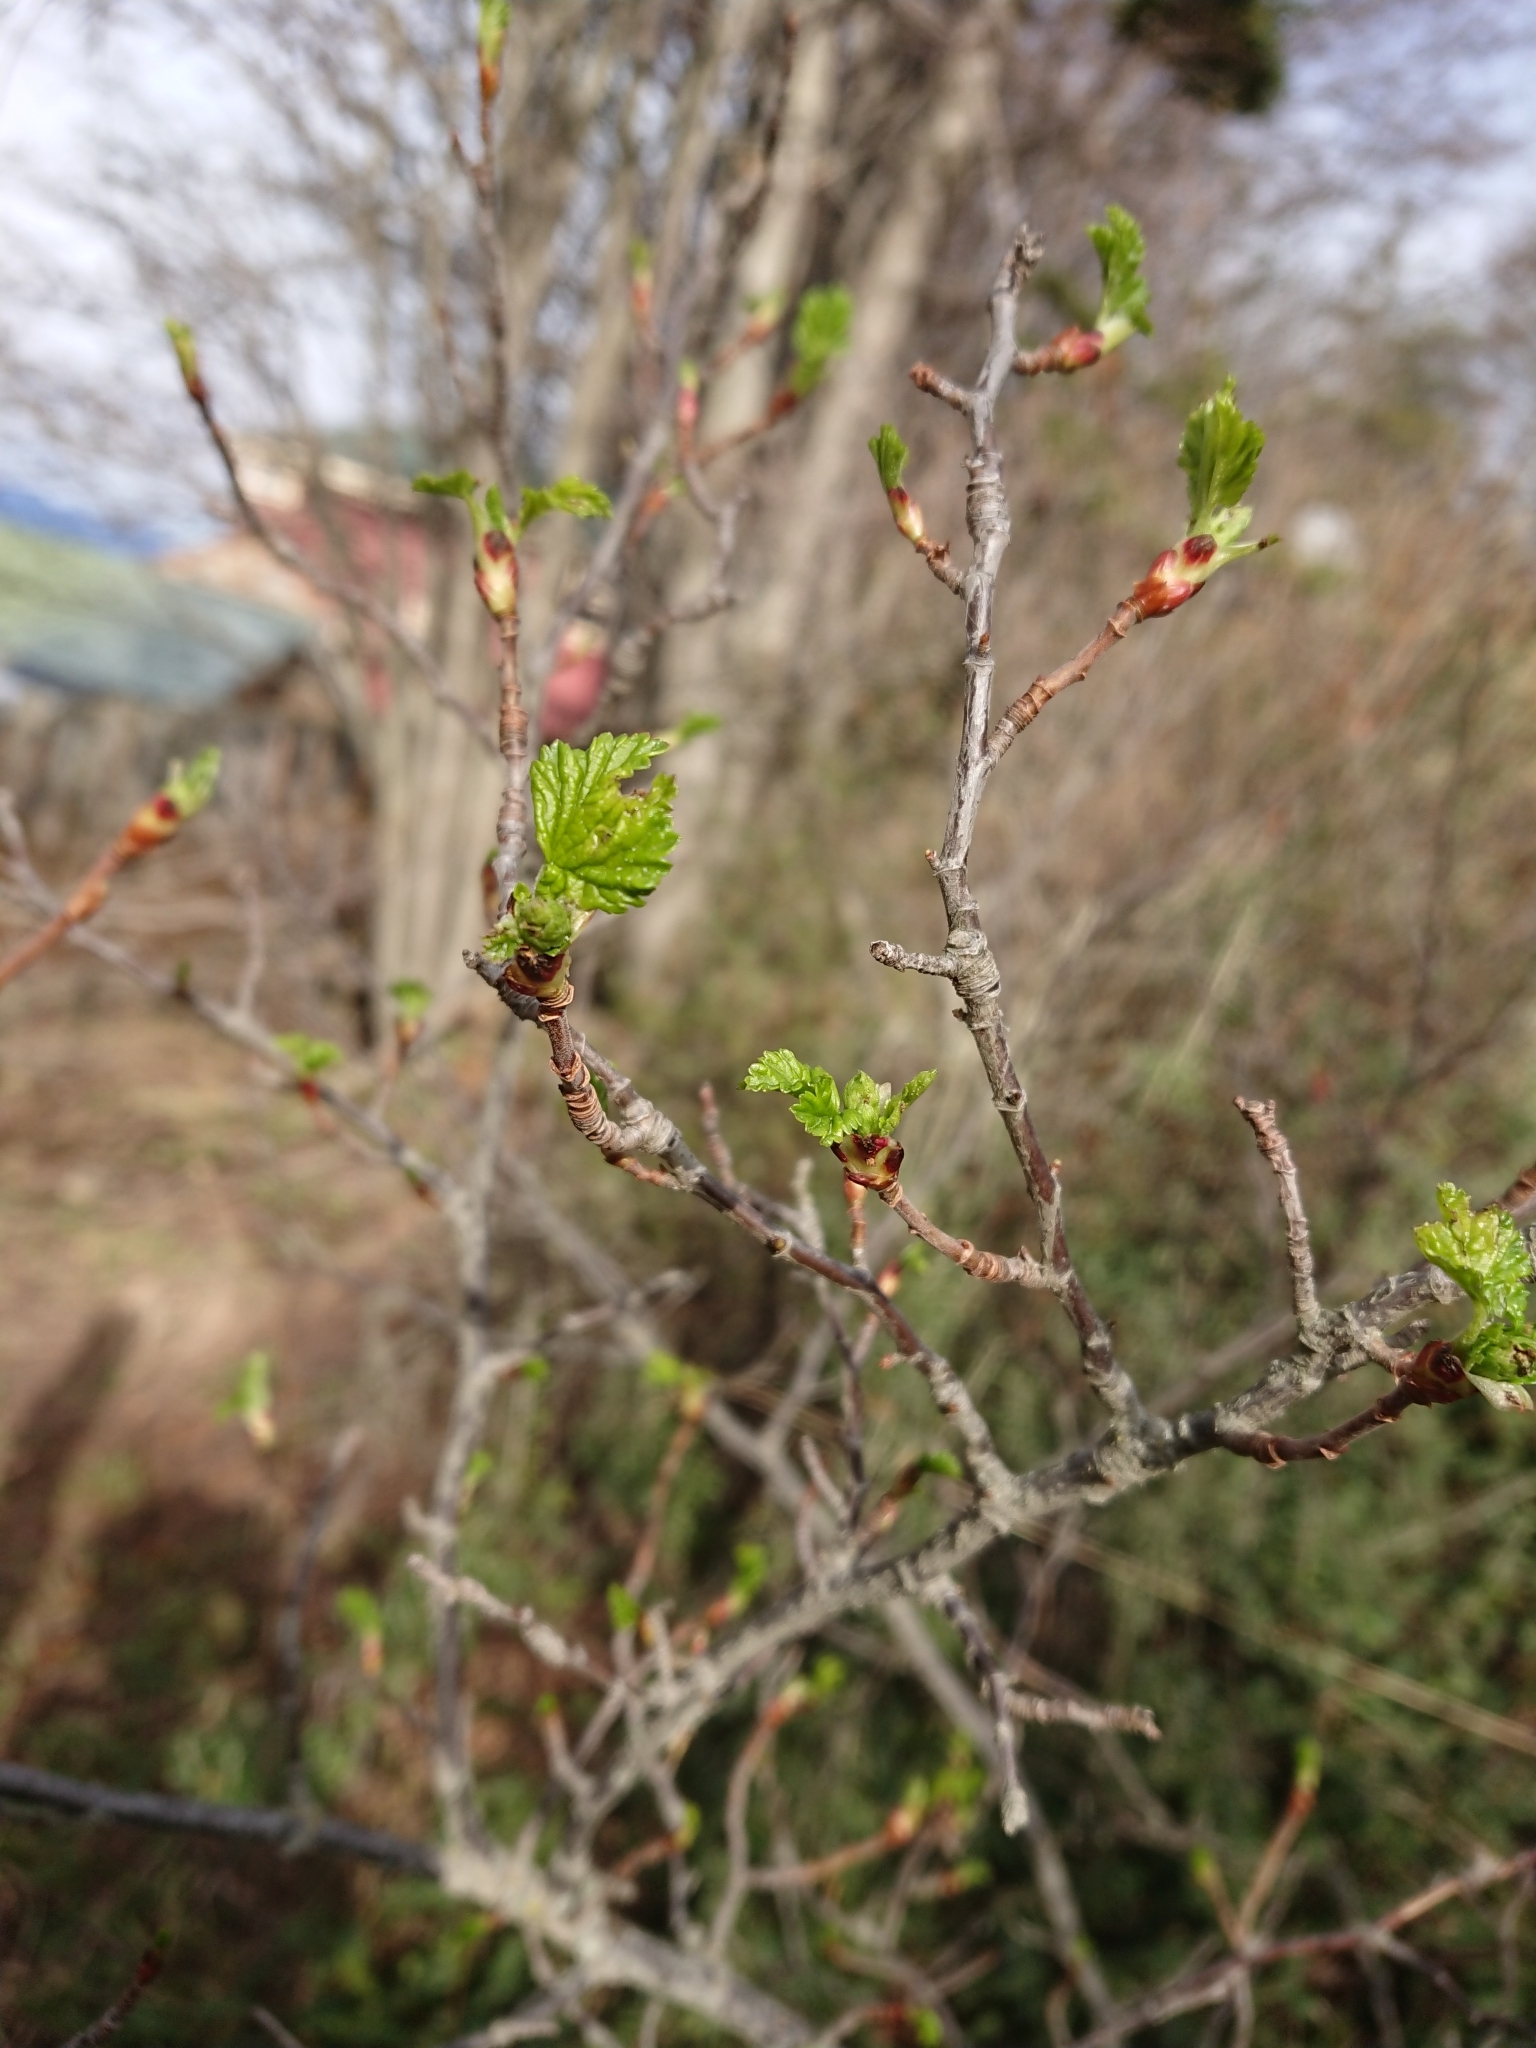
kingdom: Plantae
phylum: Tracheophyta
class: Magnoliopsida
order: Saxifragales
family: Grossulariaceae
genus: Ribes
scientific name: Ribes magellanicum
